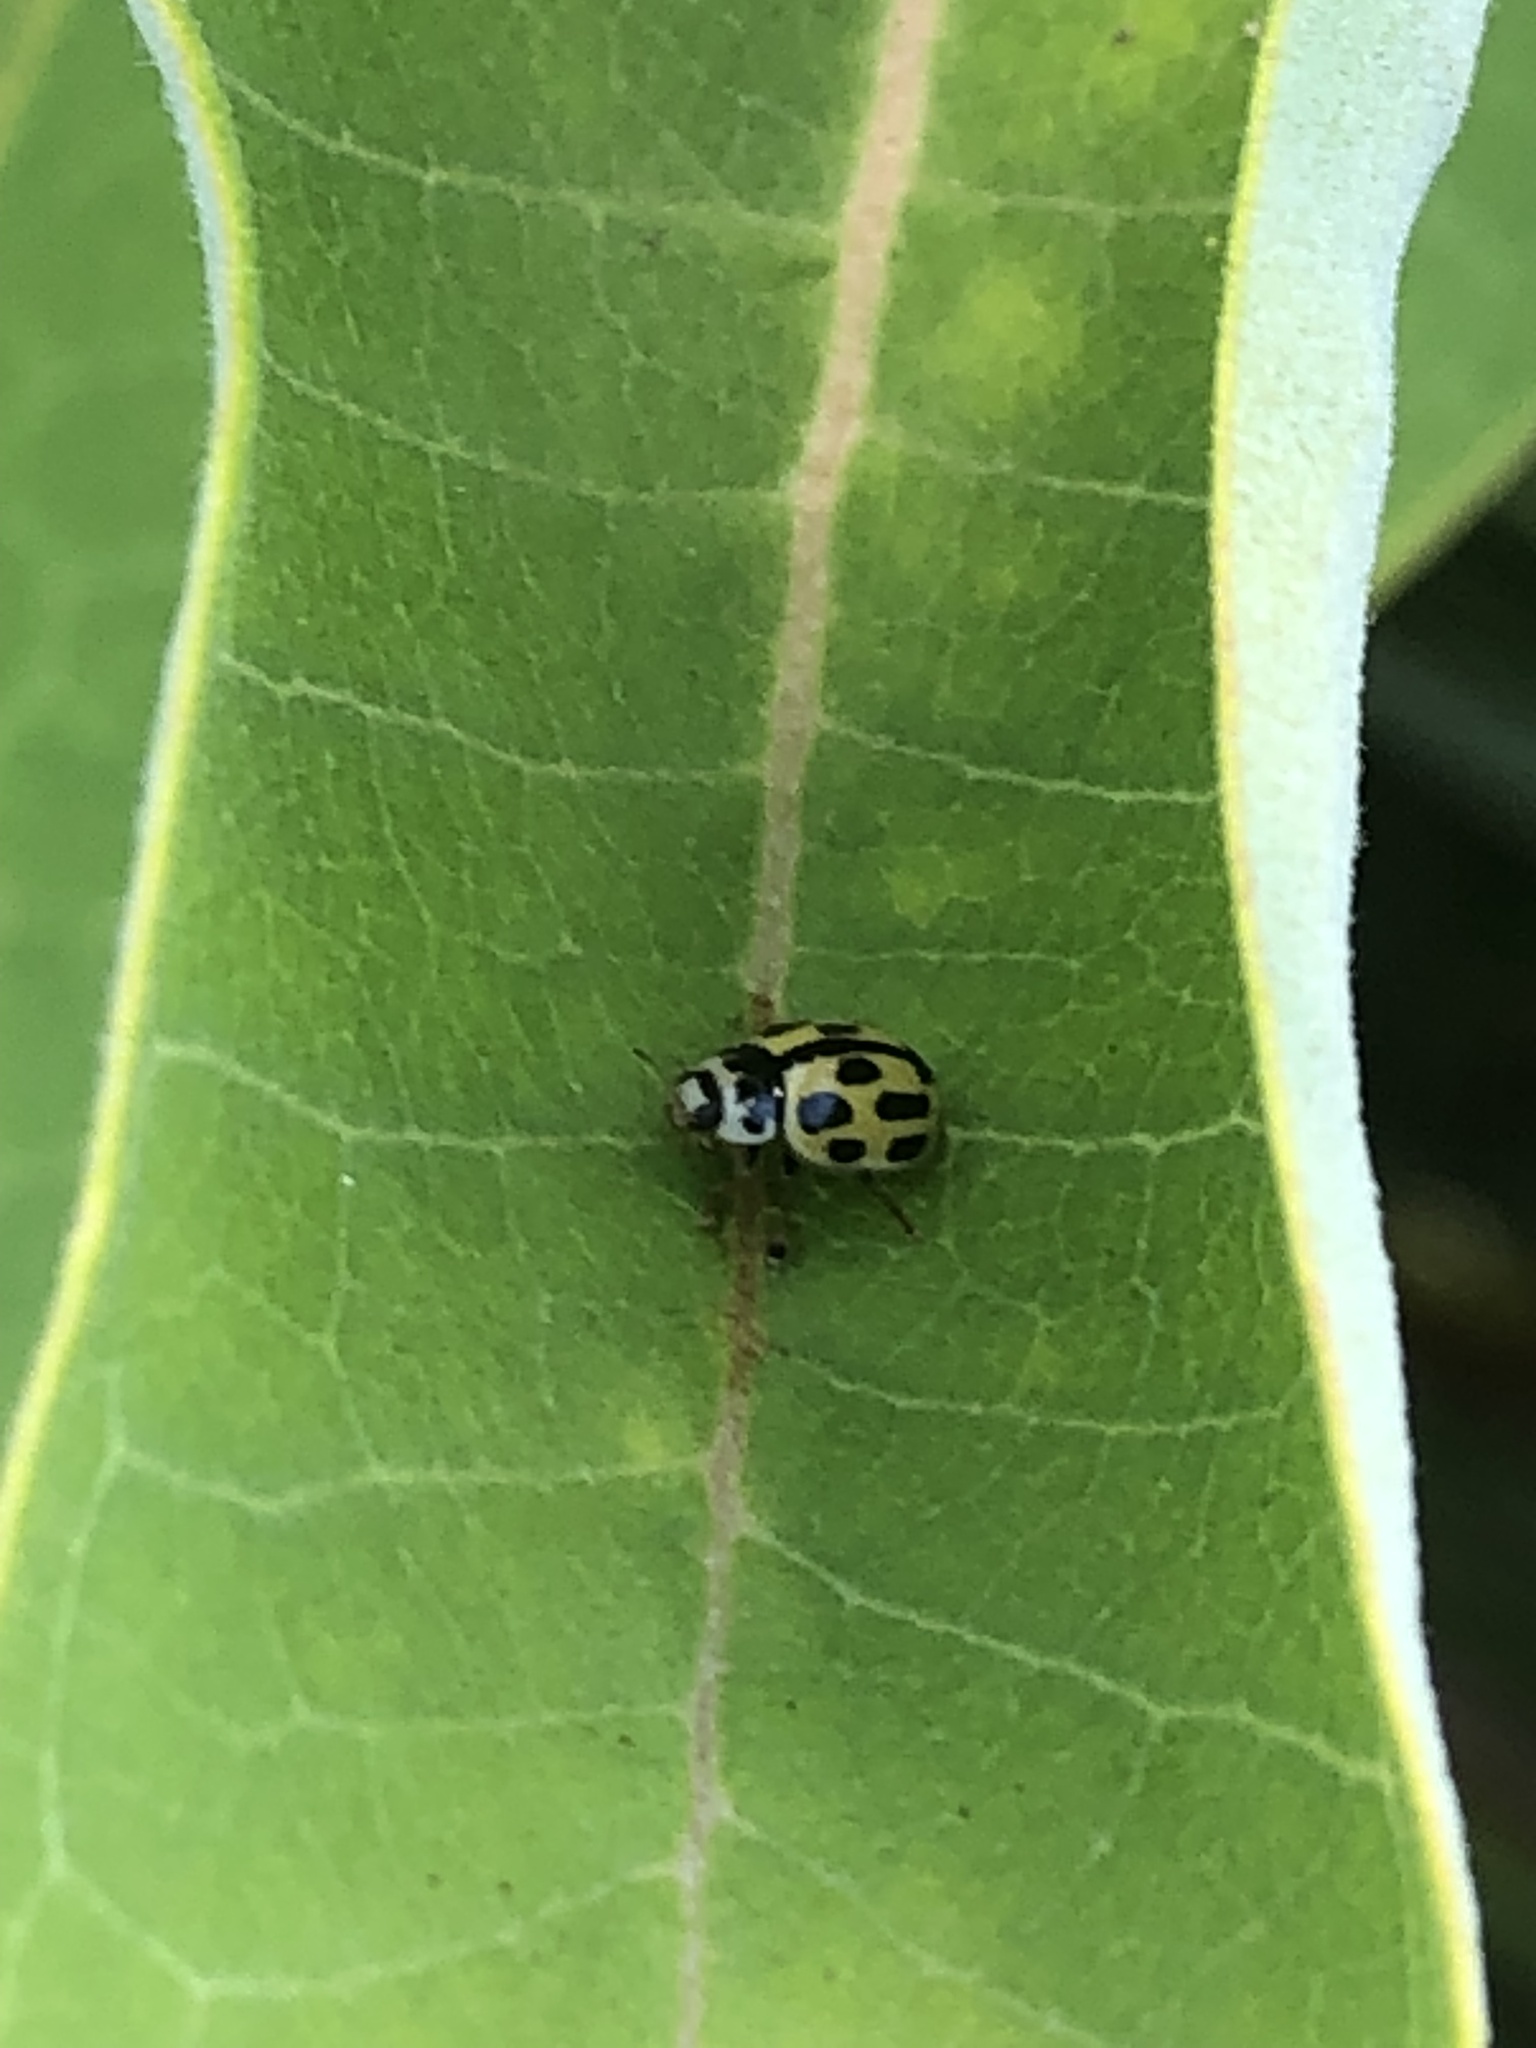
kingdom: Animalia
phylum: Arthropoda
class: Insecta
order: Coleoptera
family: Coccinellidae
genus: Propylaea
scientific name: Propylaea quatuordecimpunctata
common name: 14-spotted ladybird beetle
